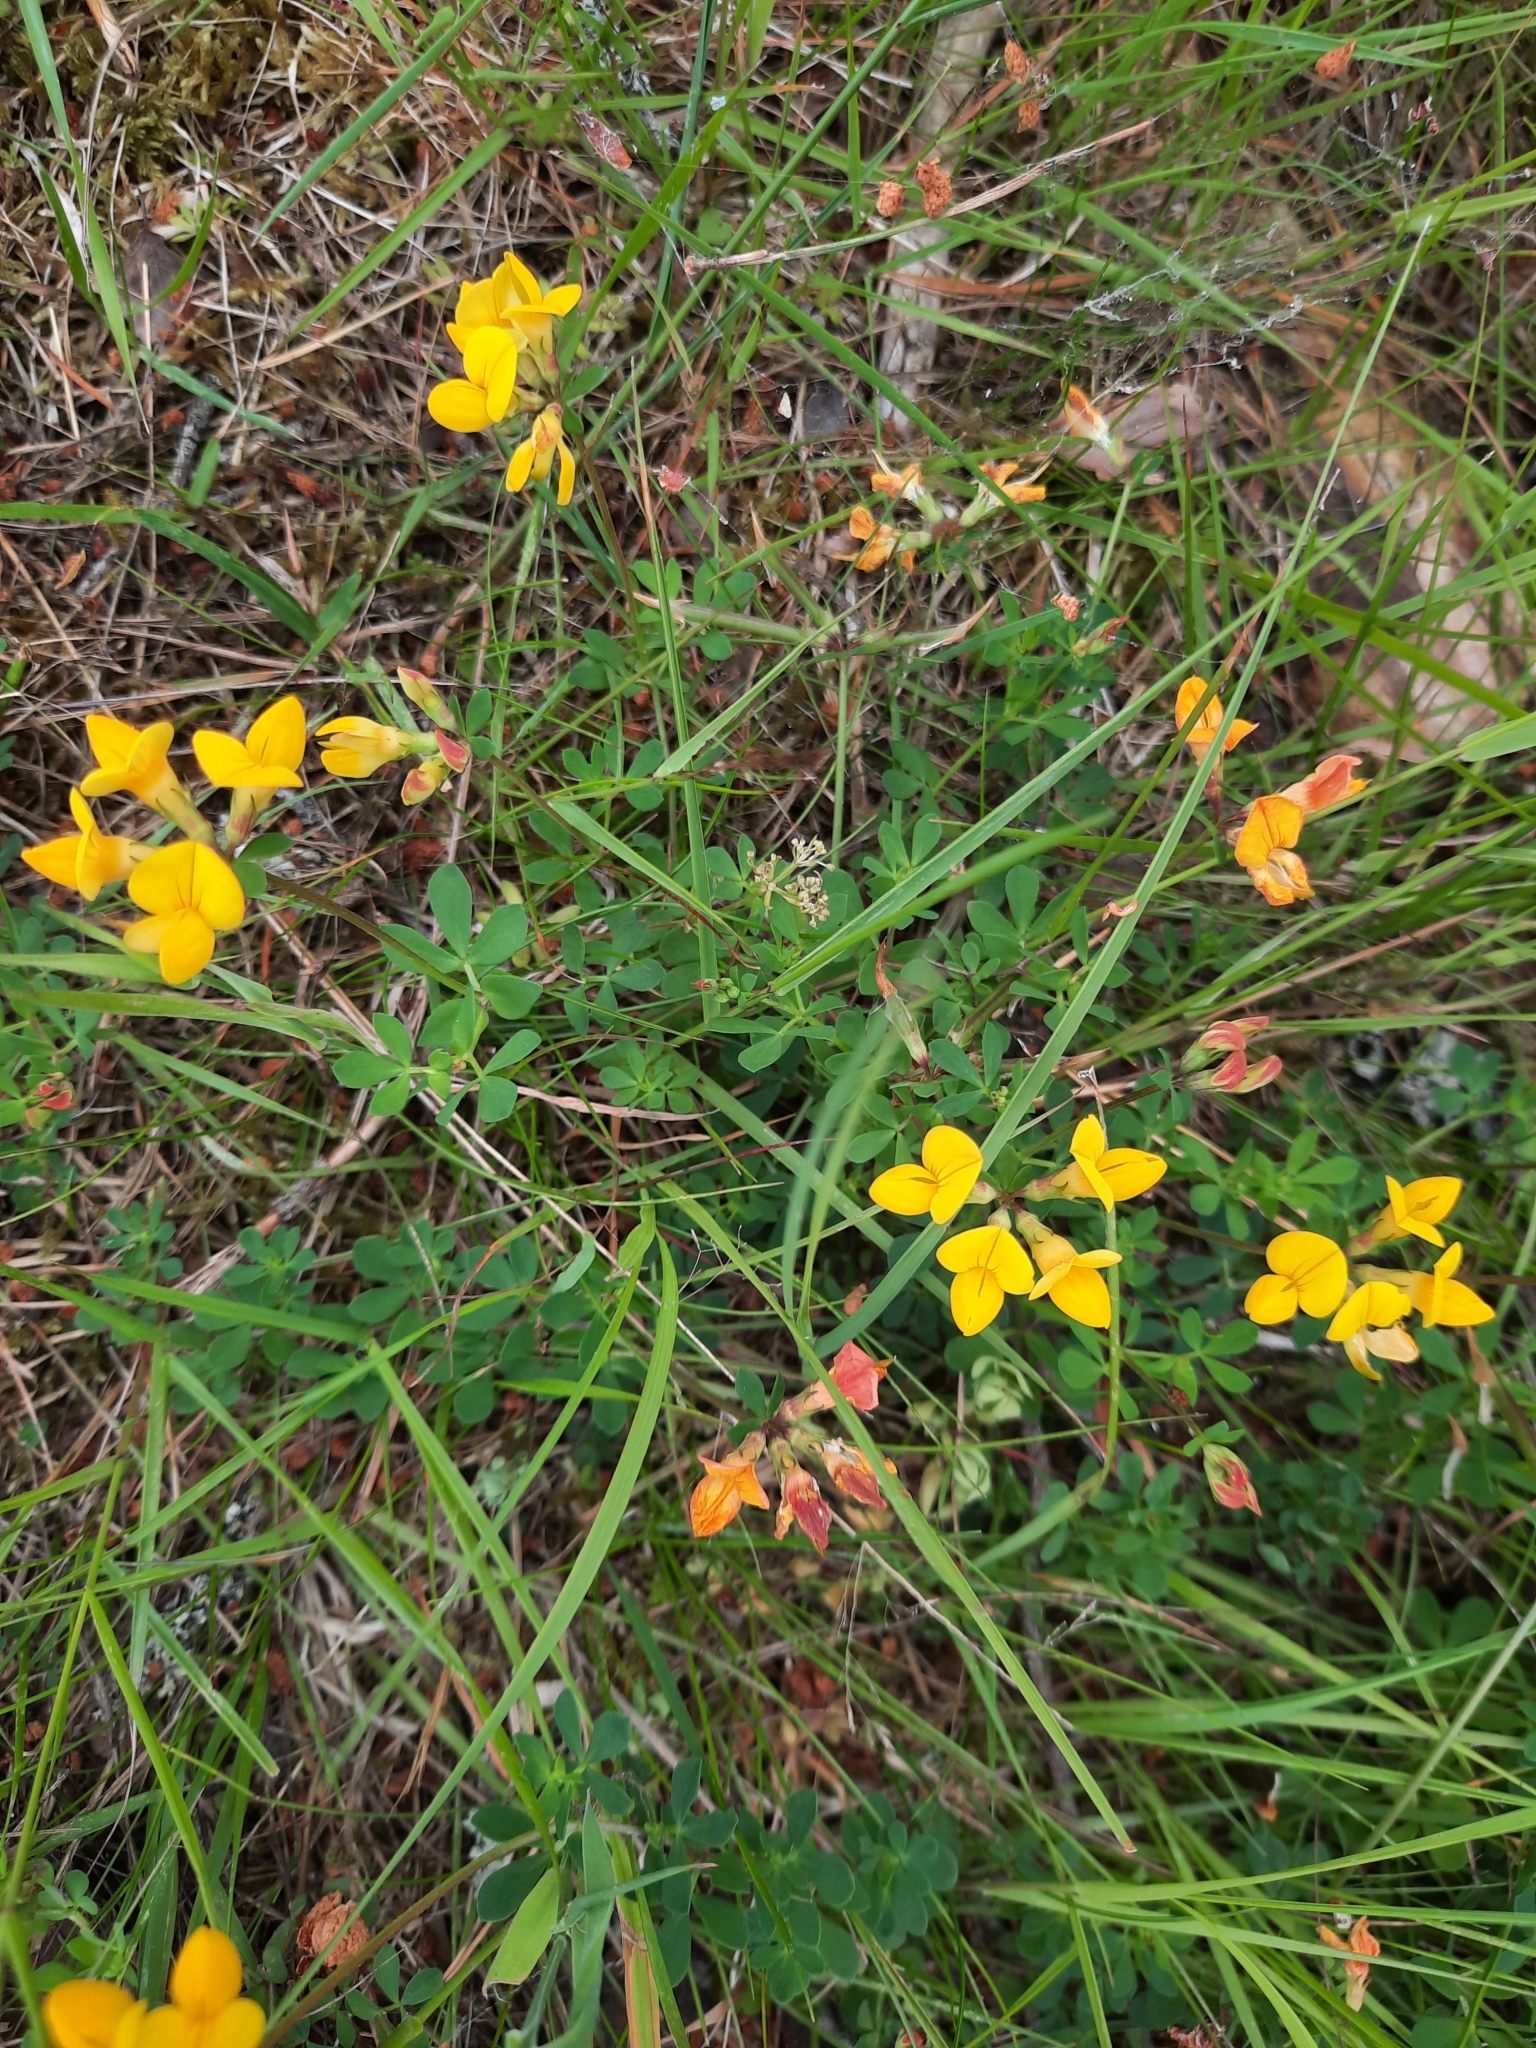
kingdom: Plantae
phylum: Tracheophyta
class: Magnoliopsida
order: Fabales
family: Fabaceae
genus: Lotus
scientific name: Lotus corniculatus
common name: Common bird's-foot-trefoil
